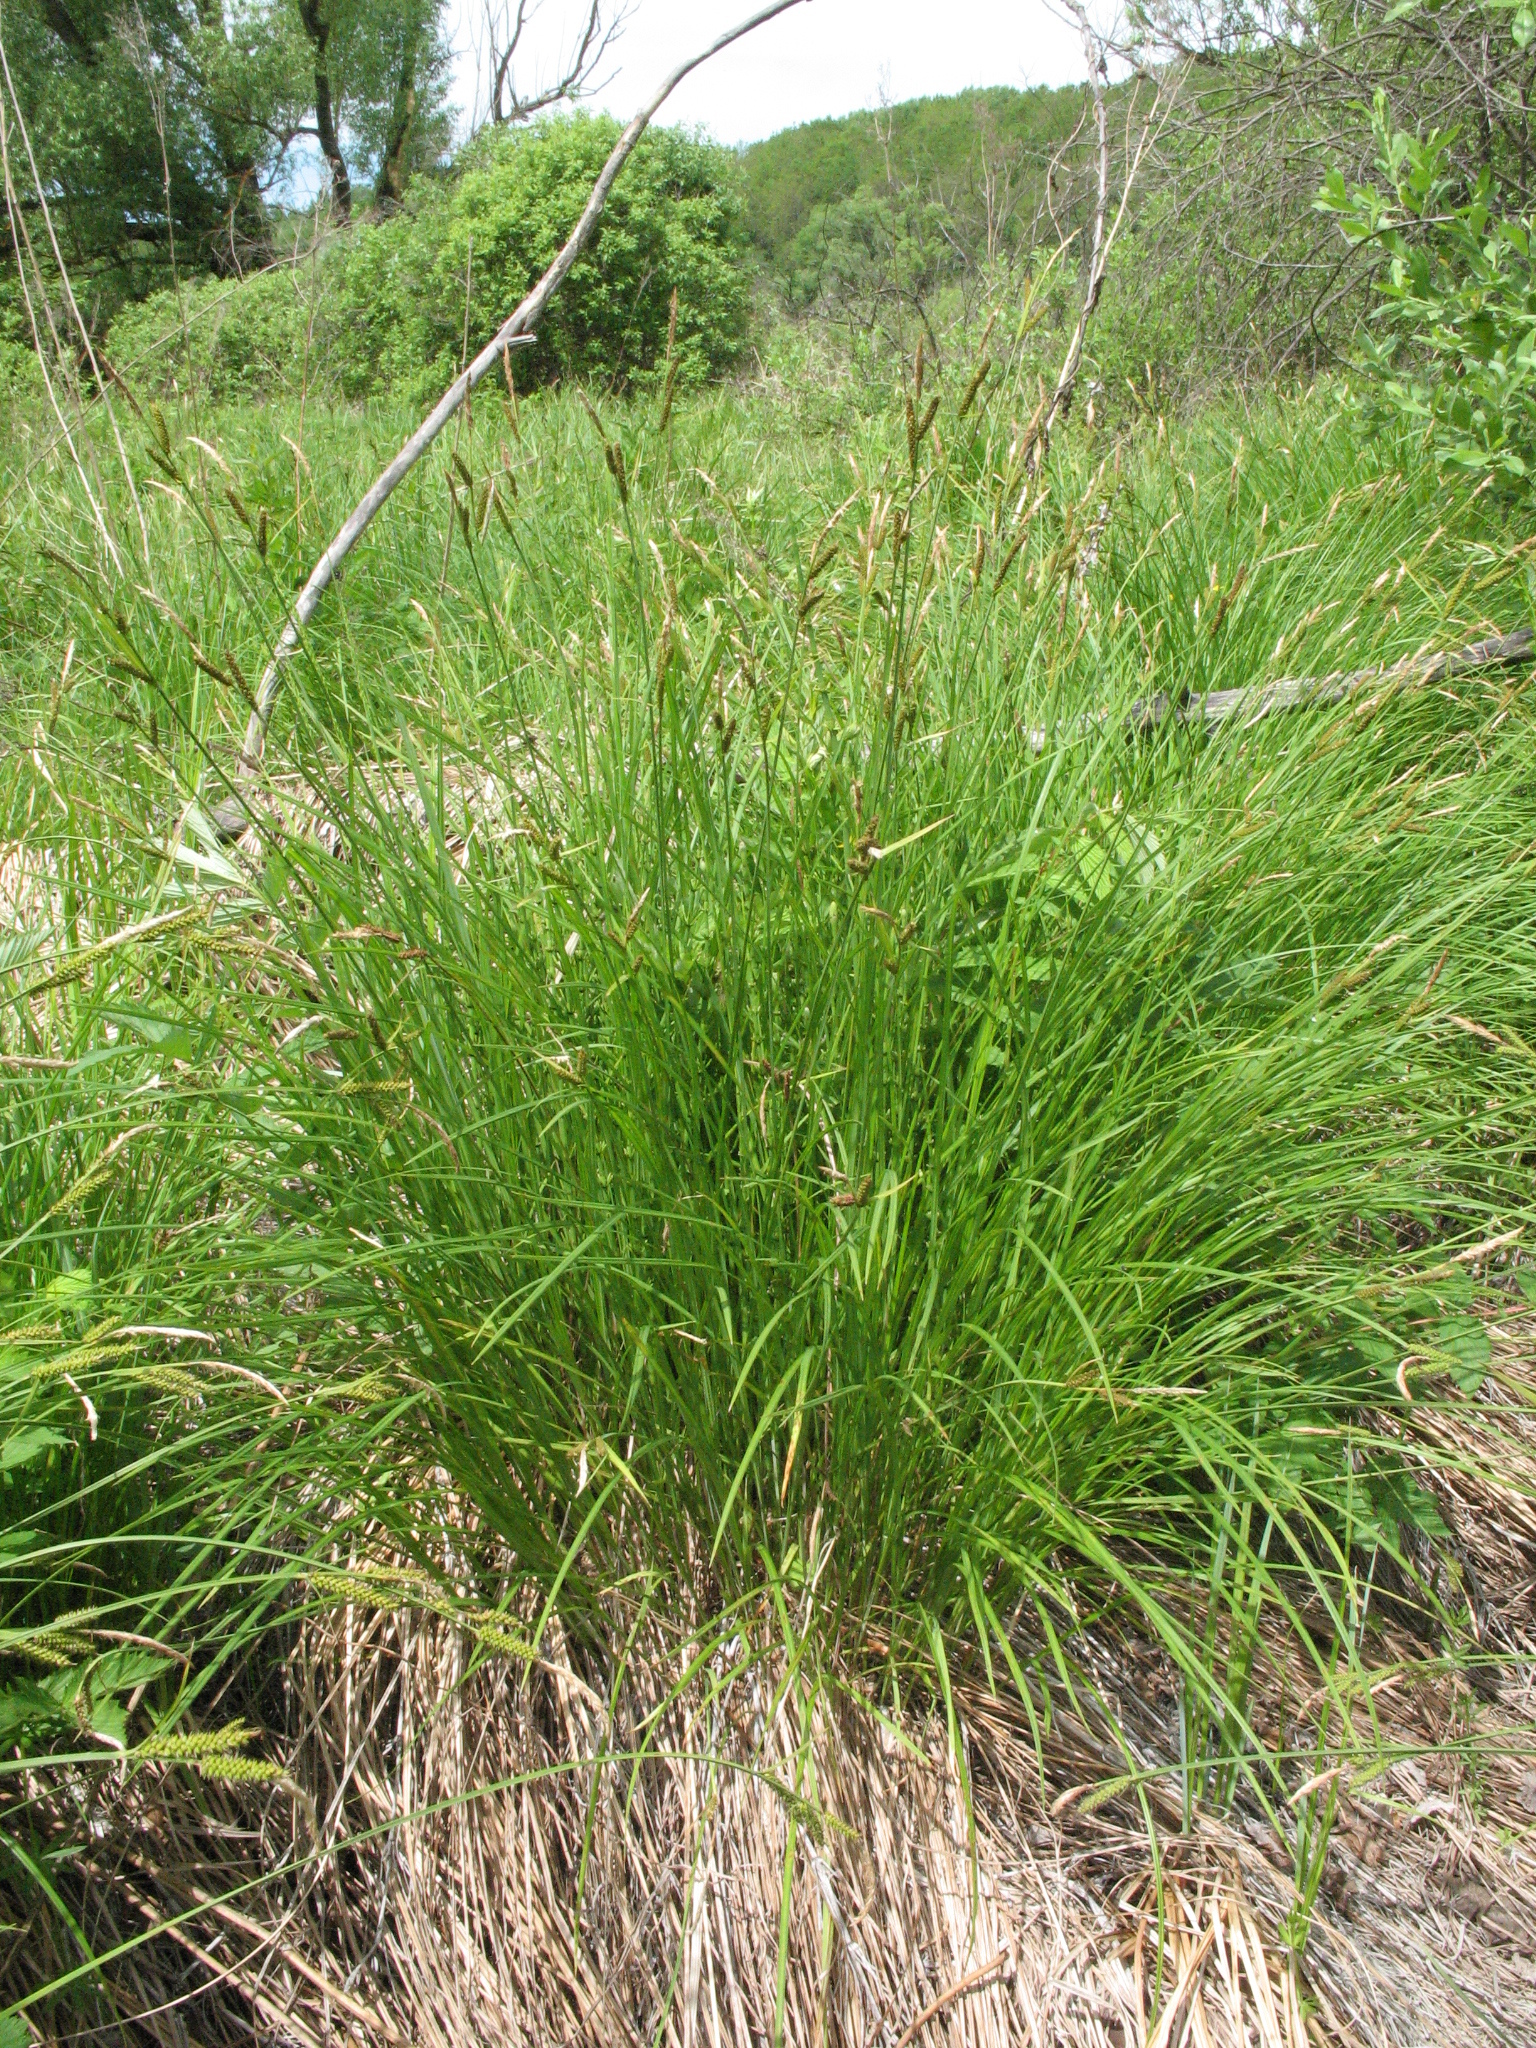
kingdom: Plantae
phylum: Tracheophyta
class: Liliopsida
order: Poales
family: Cyperaceae
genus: Carex
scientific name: Carex cespitosa
